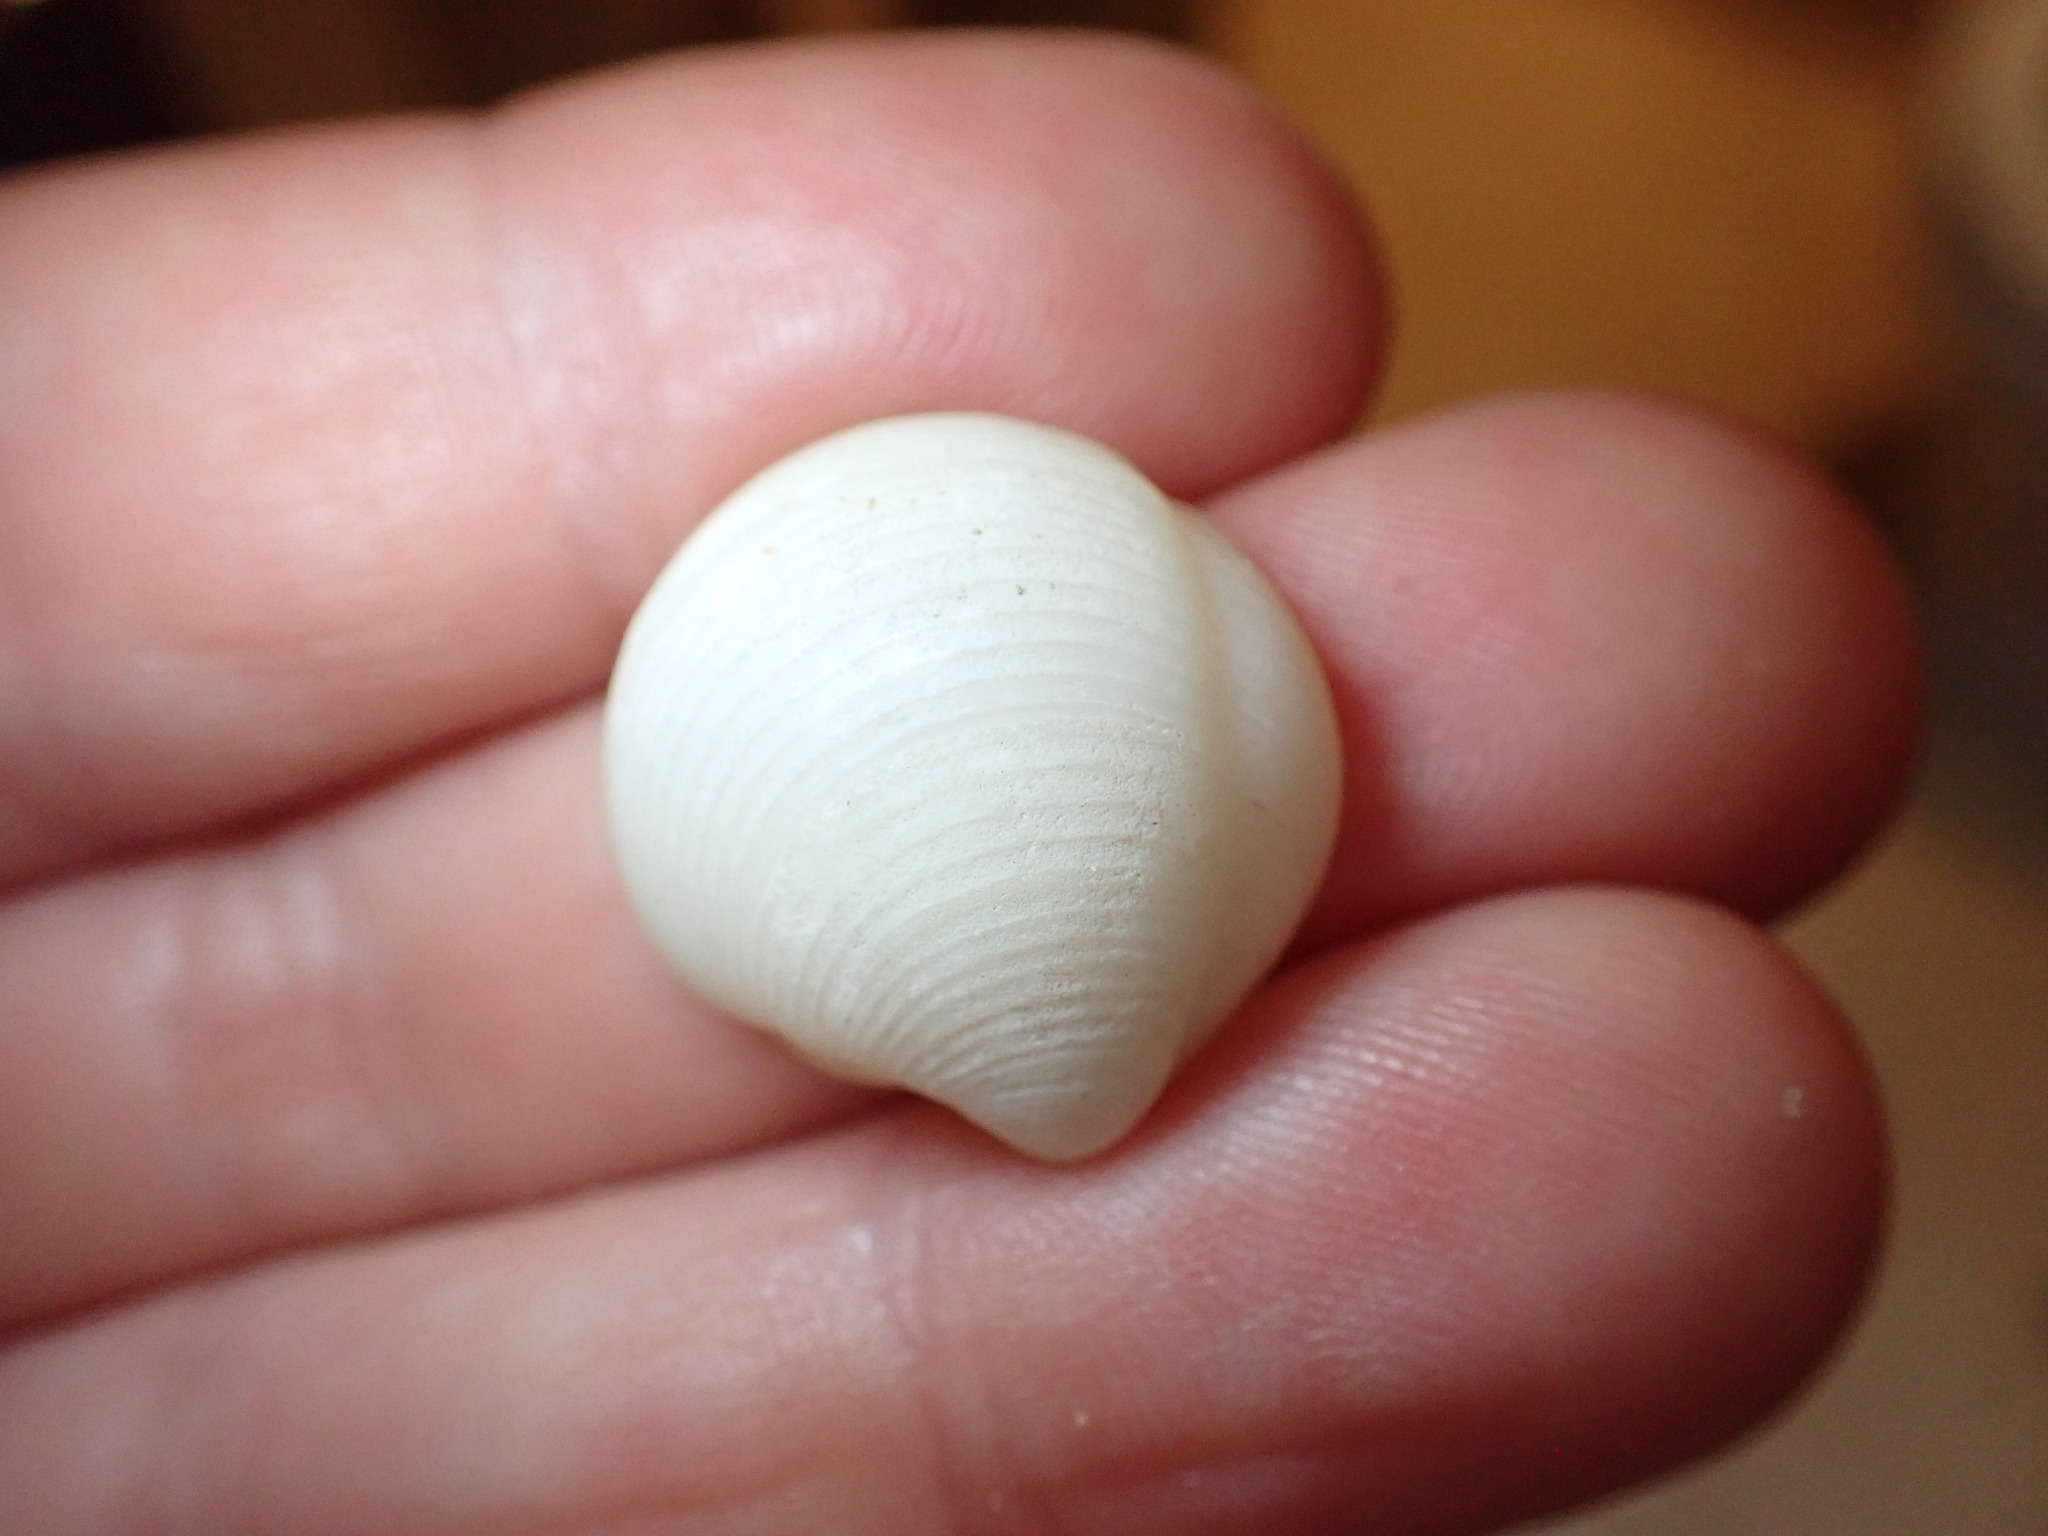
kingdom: Animalia
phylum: Mollusca
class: Bivalvia
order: Lucinida
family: Lucinidae
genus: Lucina
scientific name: Lucina adansoni
